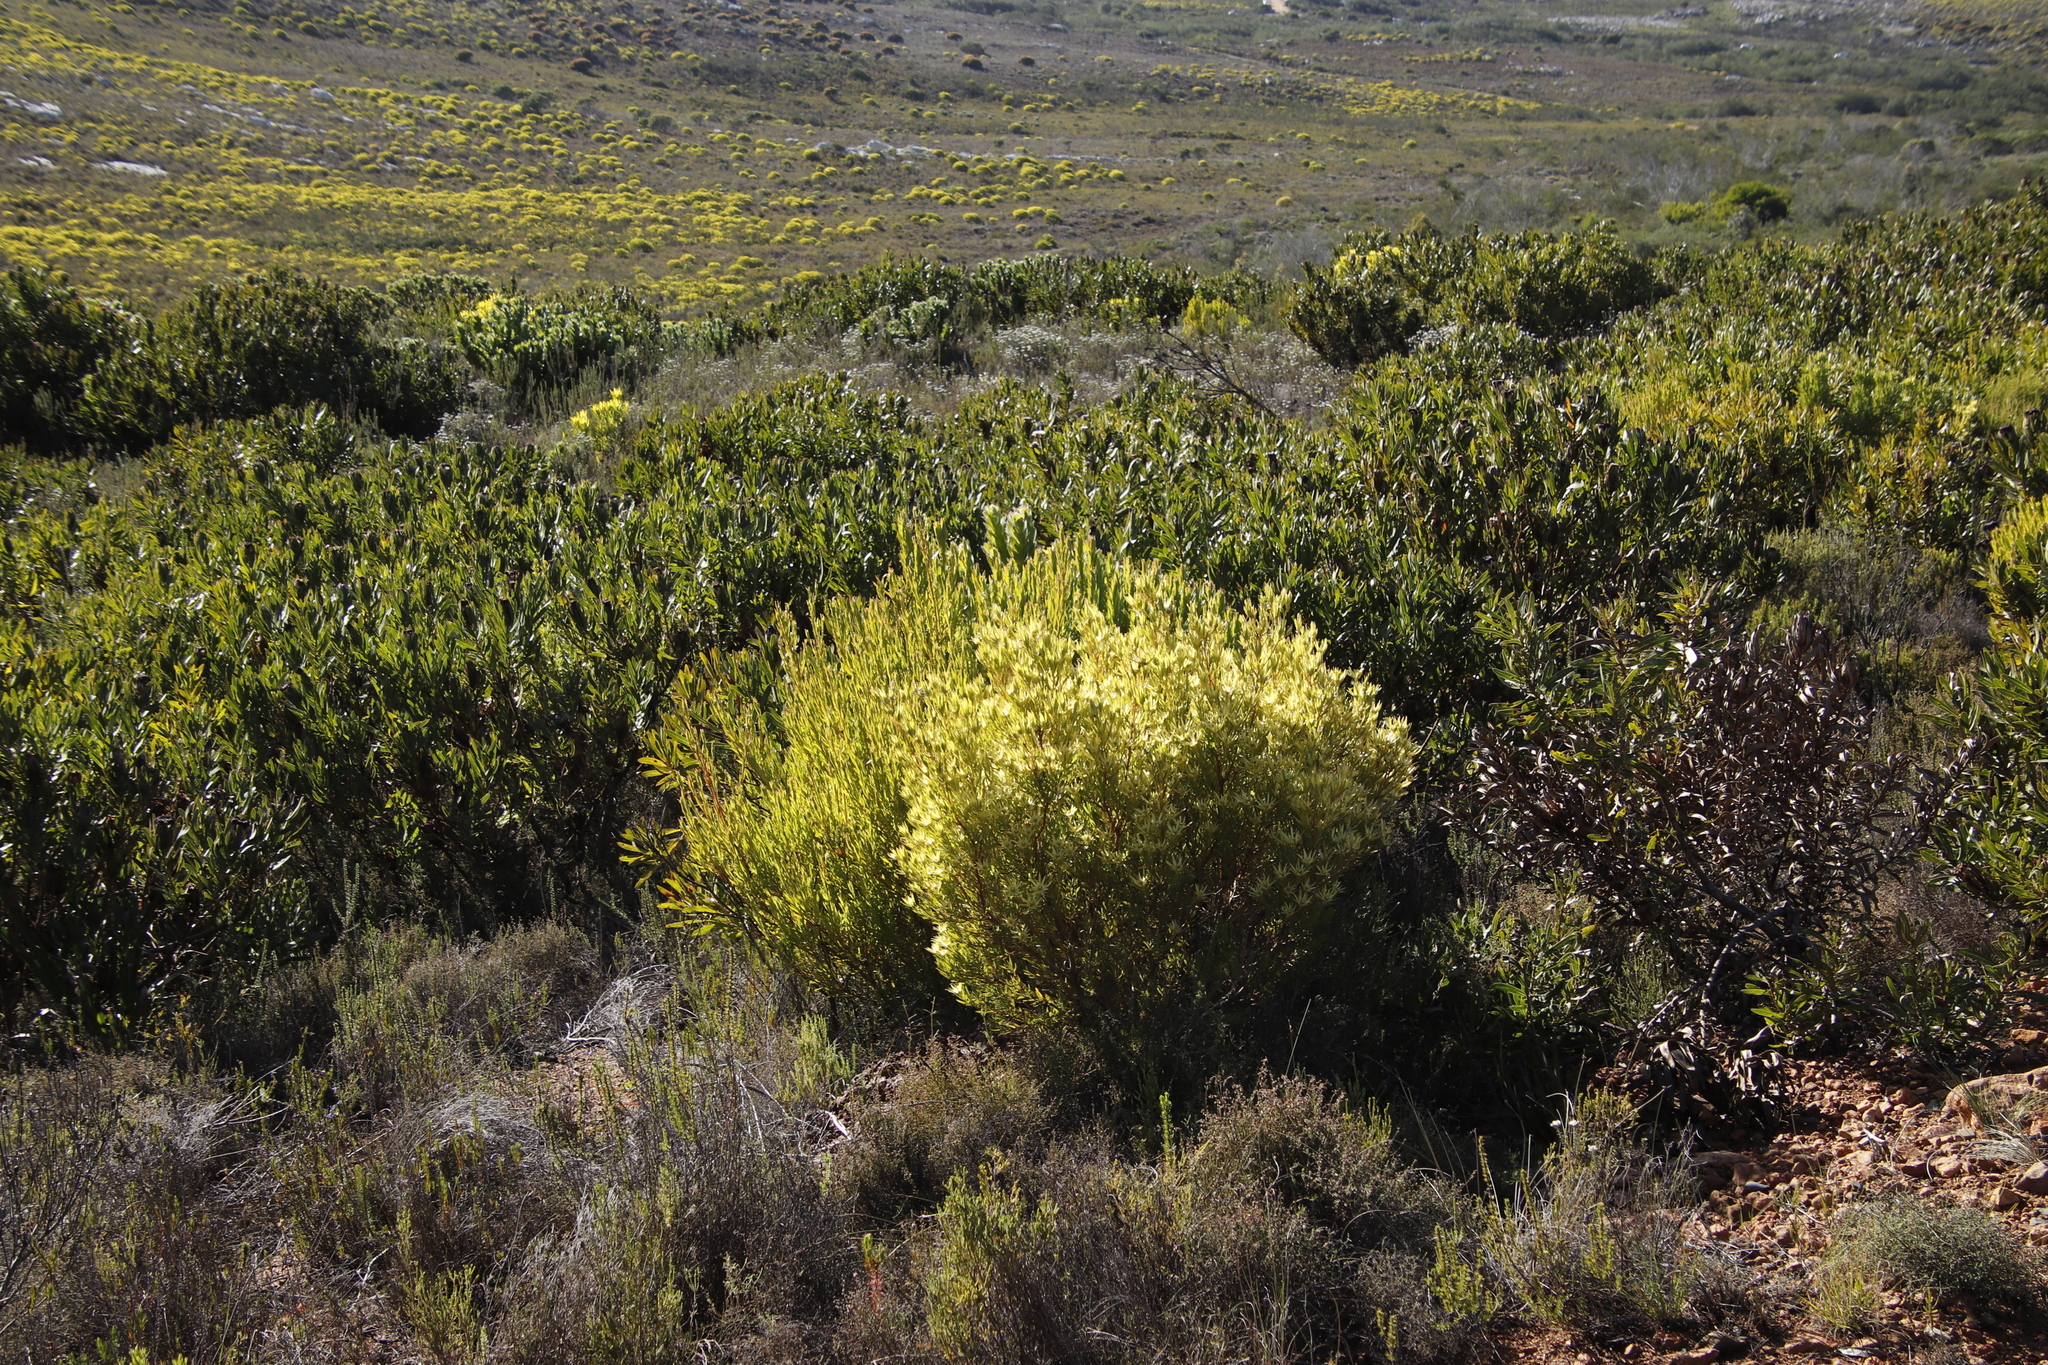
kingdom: Plantae
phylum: Tracheophyta
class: Magnoliopsida
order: Proteales
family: Proteaceae
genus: Leucadendron
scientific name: Leucadendron xanthoconus
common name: Sickle-leaf conebush
